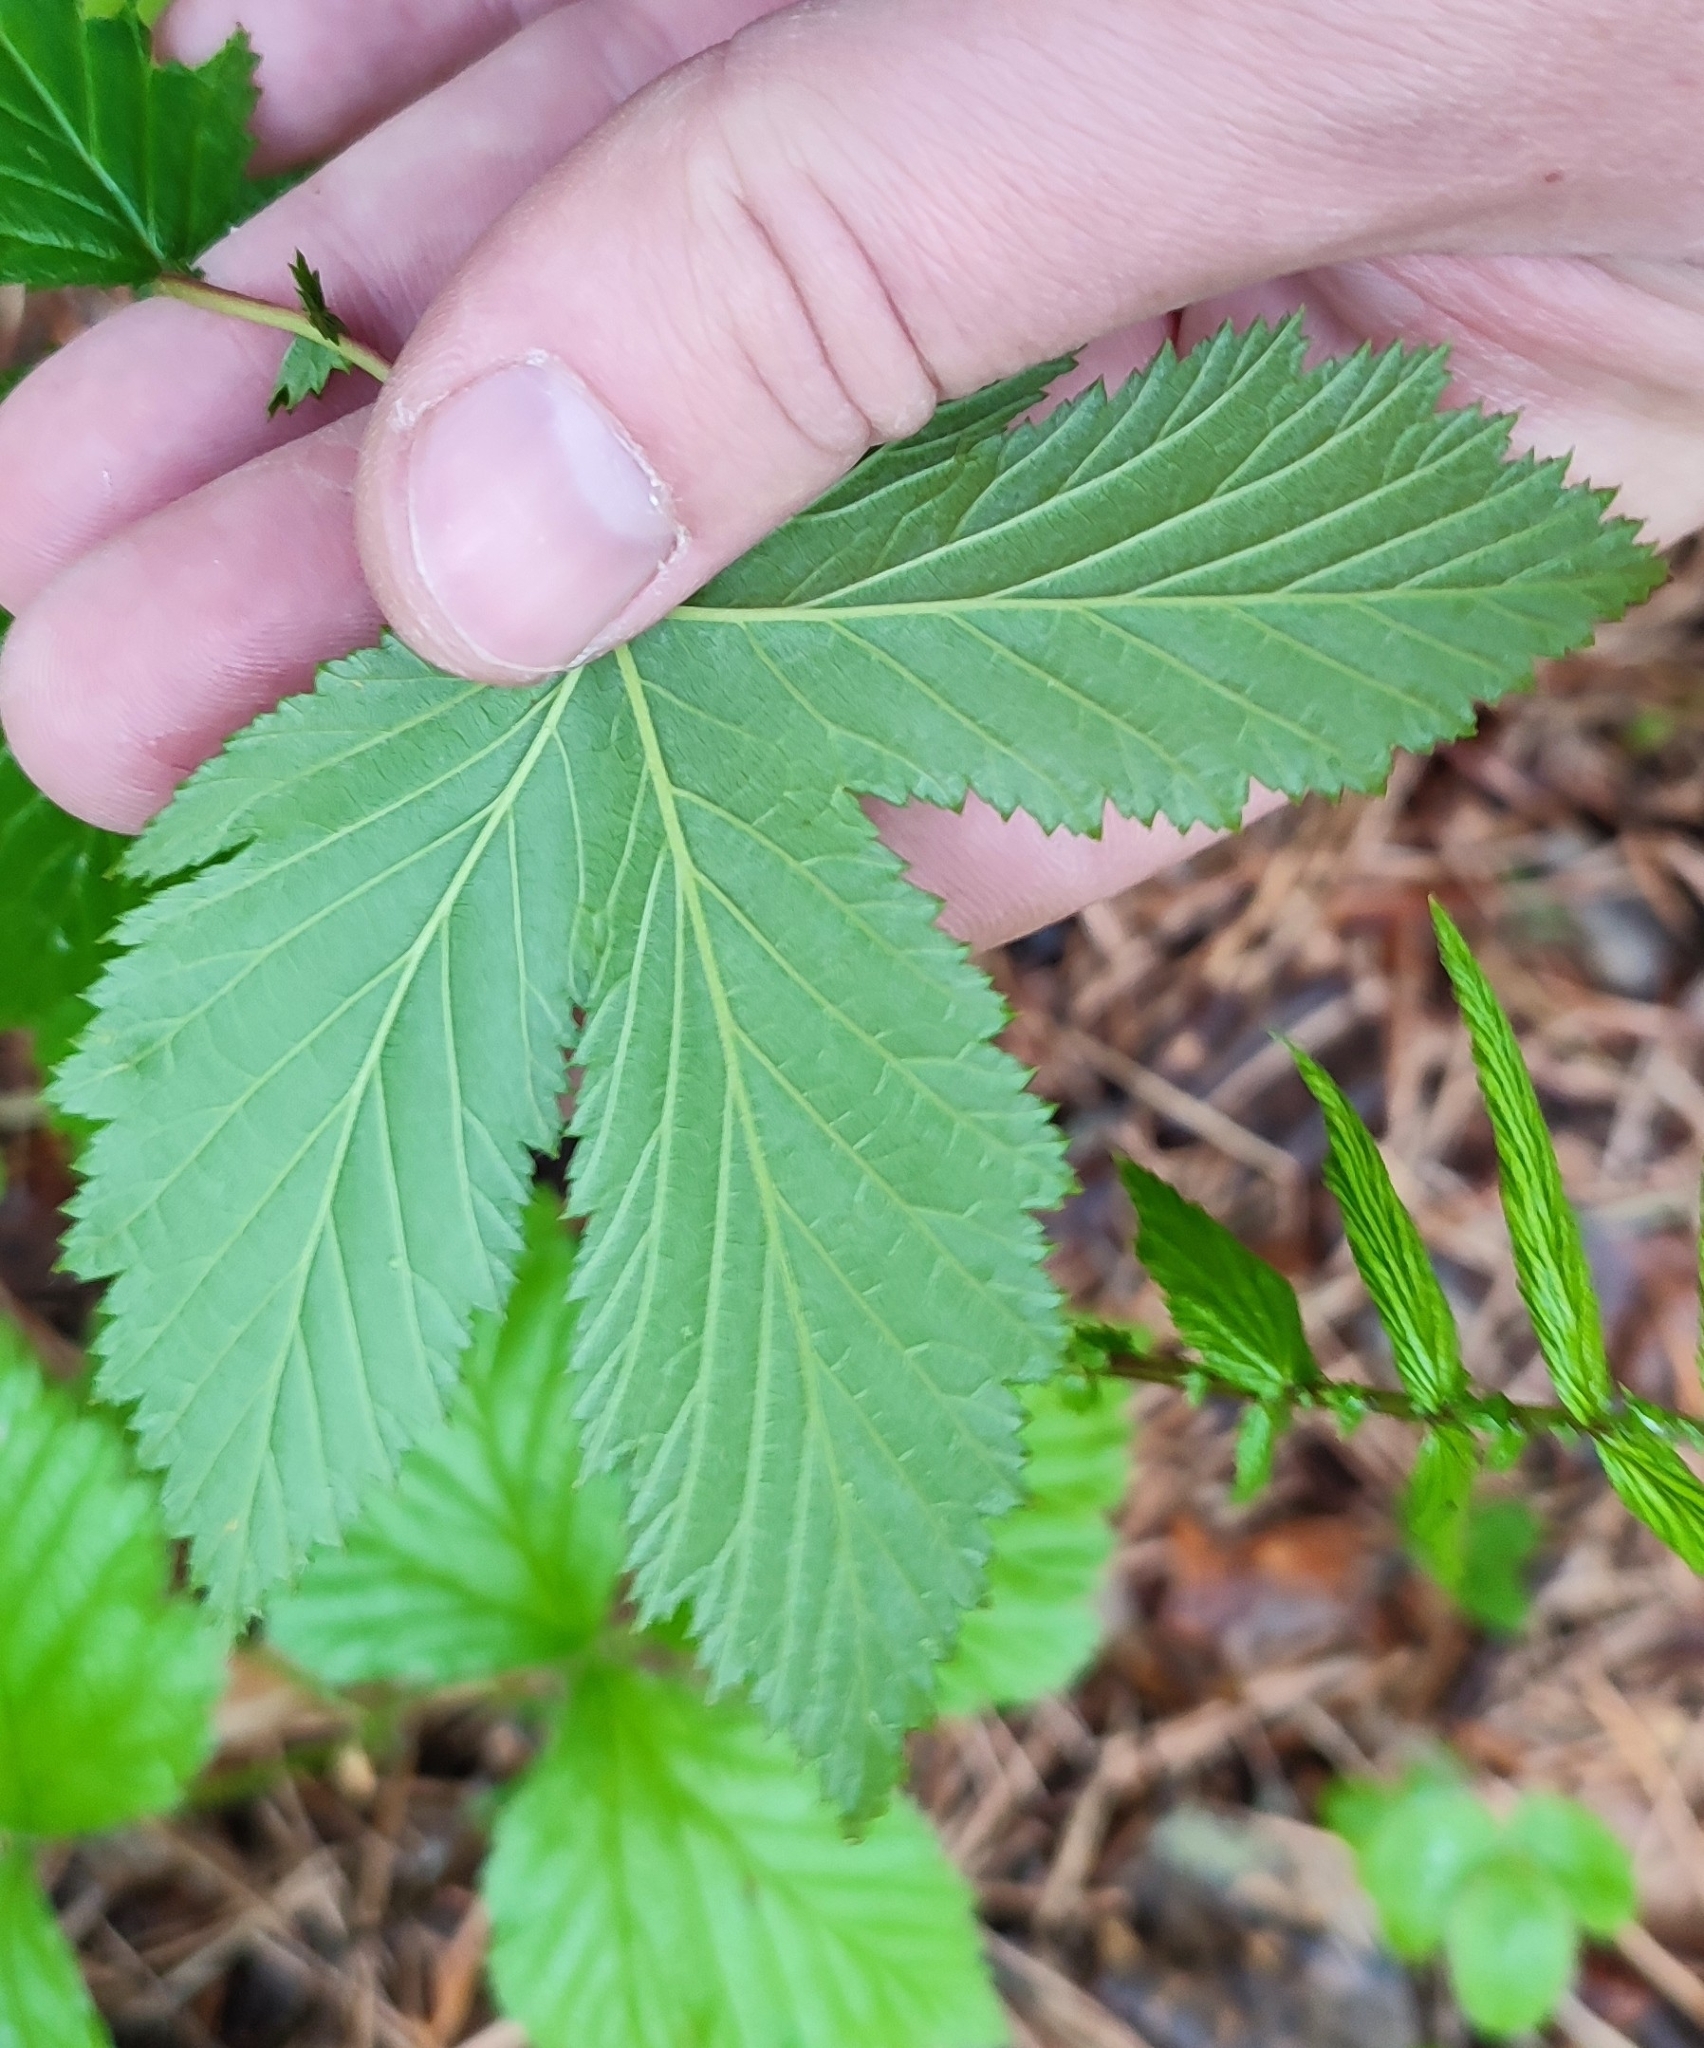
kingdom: Plantae
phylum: Tracheophyta
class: Magnoliopsida
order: Rosales
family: Rosaceae
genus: Filipendula
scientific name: Filipendula ulmaria
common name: Meadowsweet
